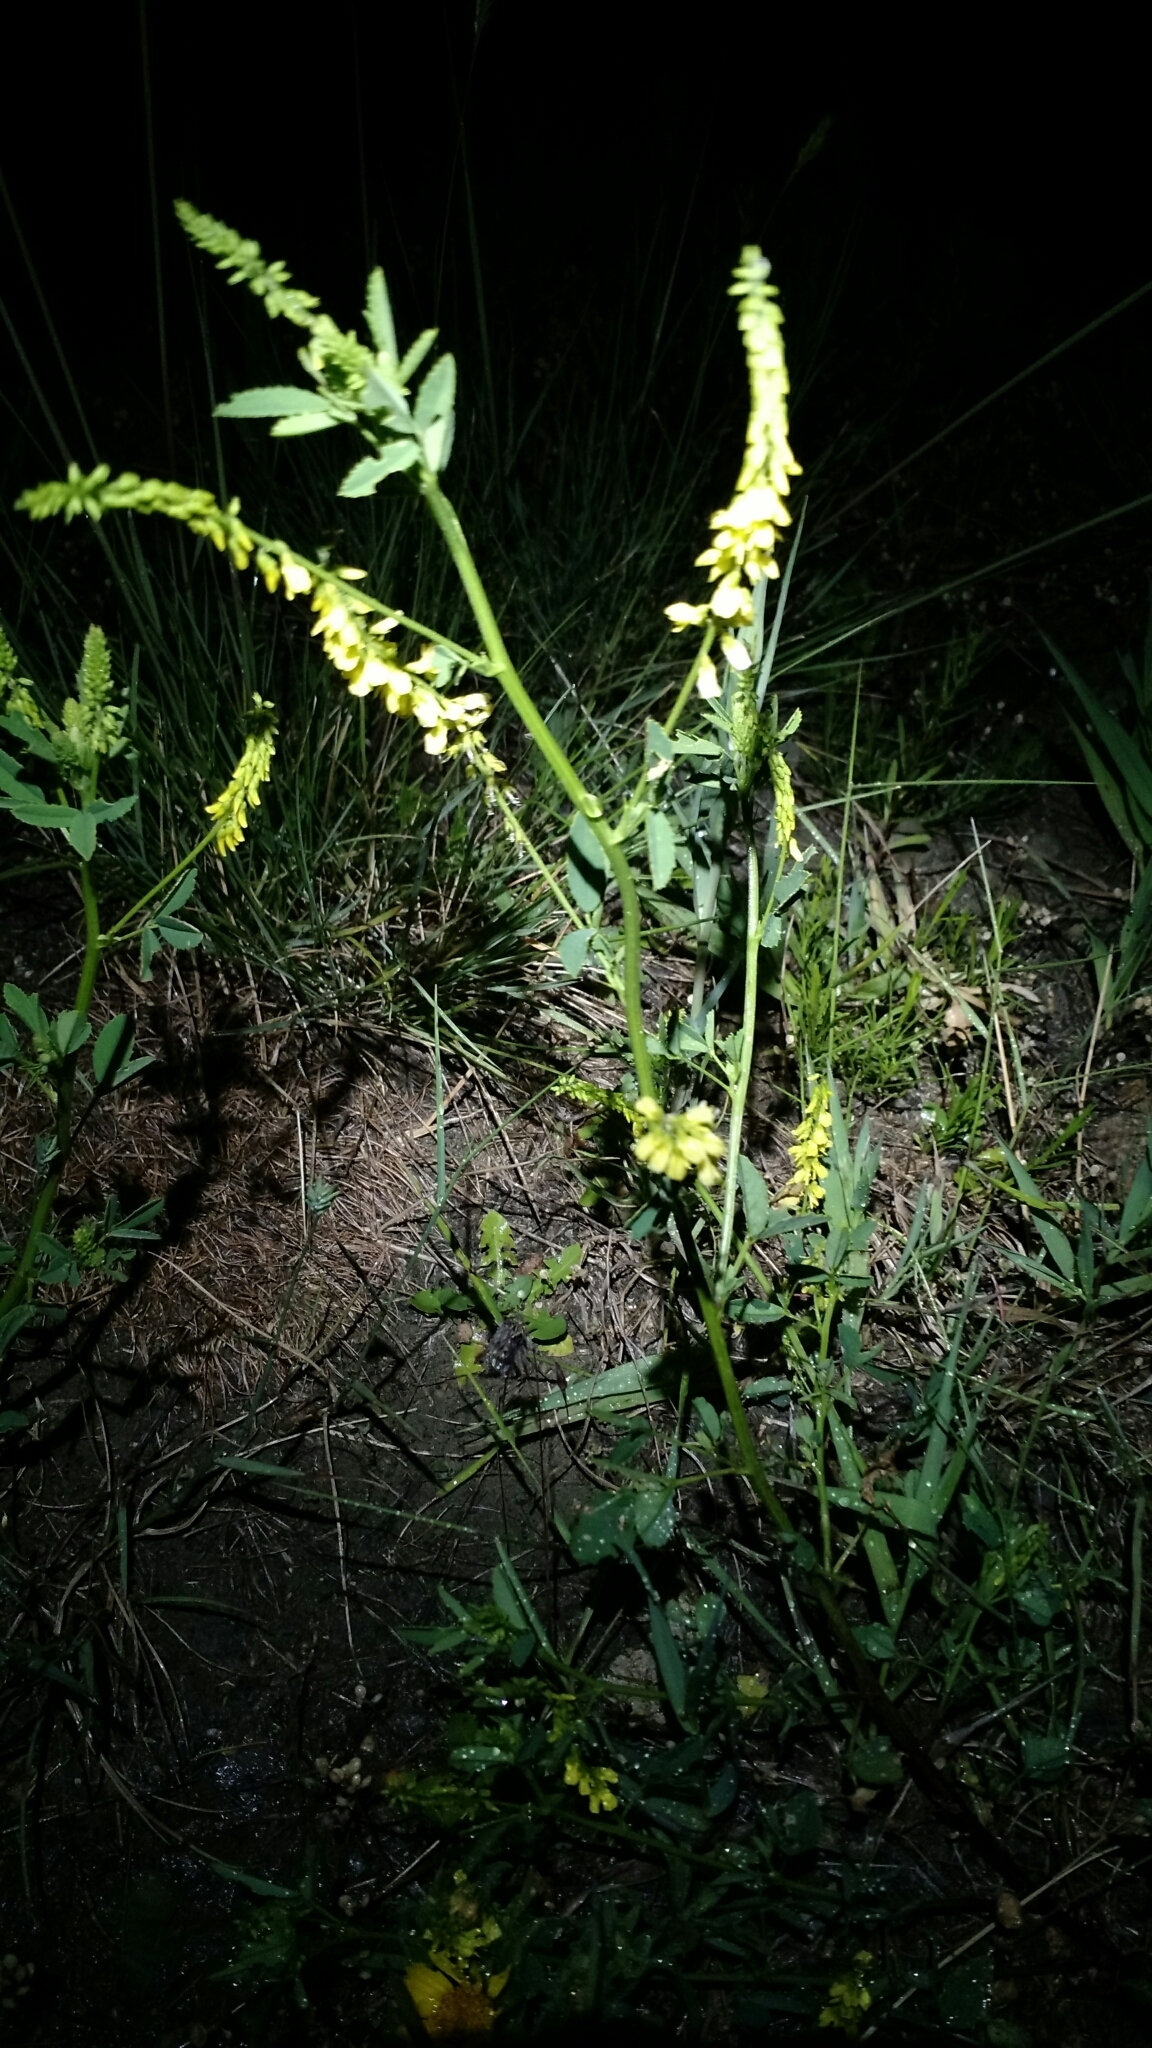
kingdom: Plantae
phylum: Tracheophyta
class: Magnoliopsida
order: Fabales
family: Fabaceae
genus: Melilotus
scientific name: Melilotus officinalis
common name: Sweetclover
